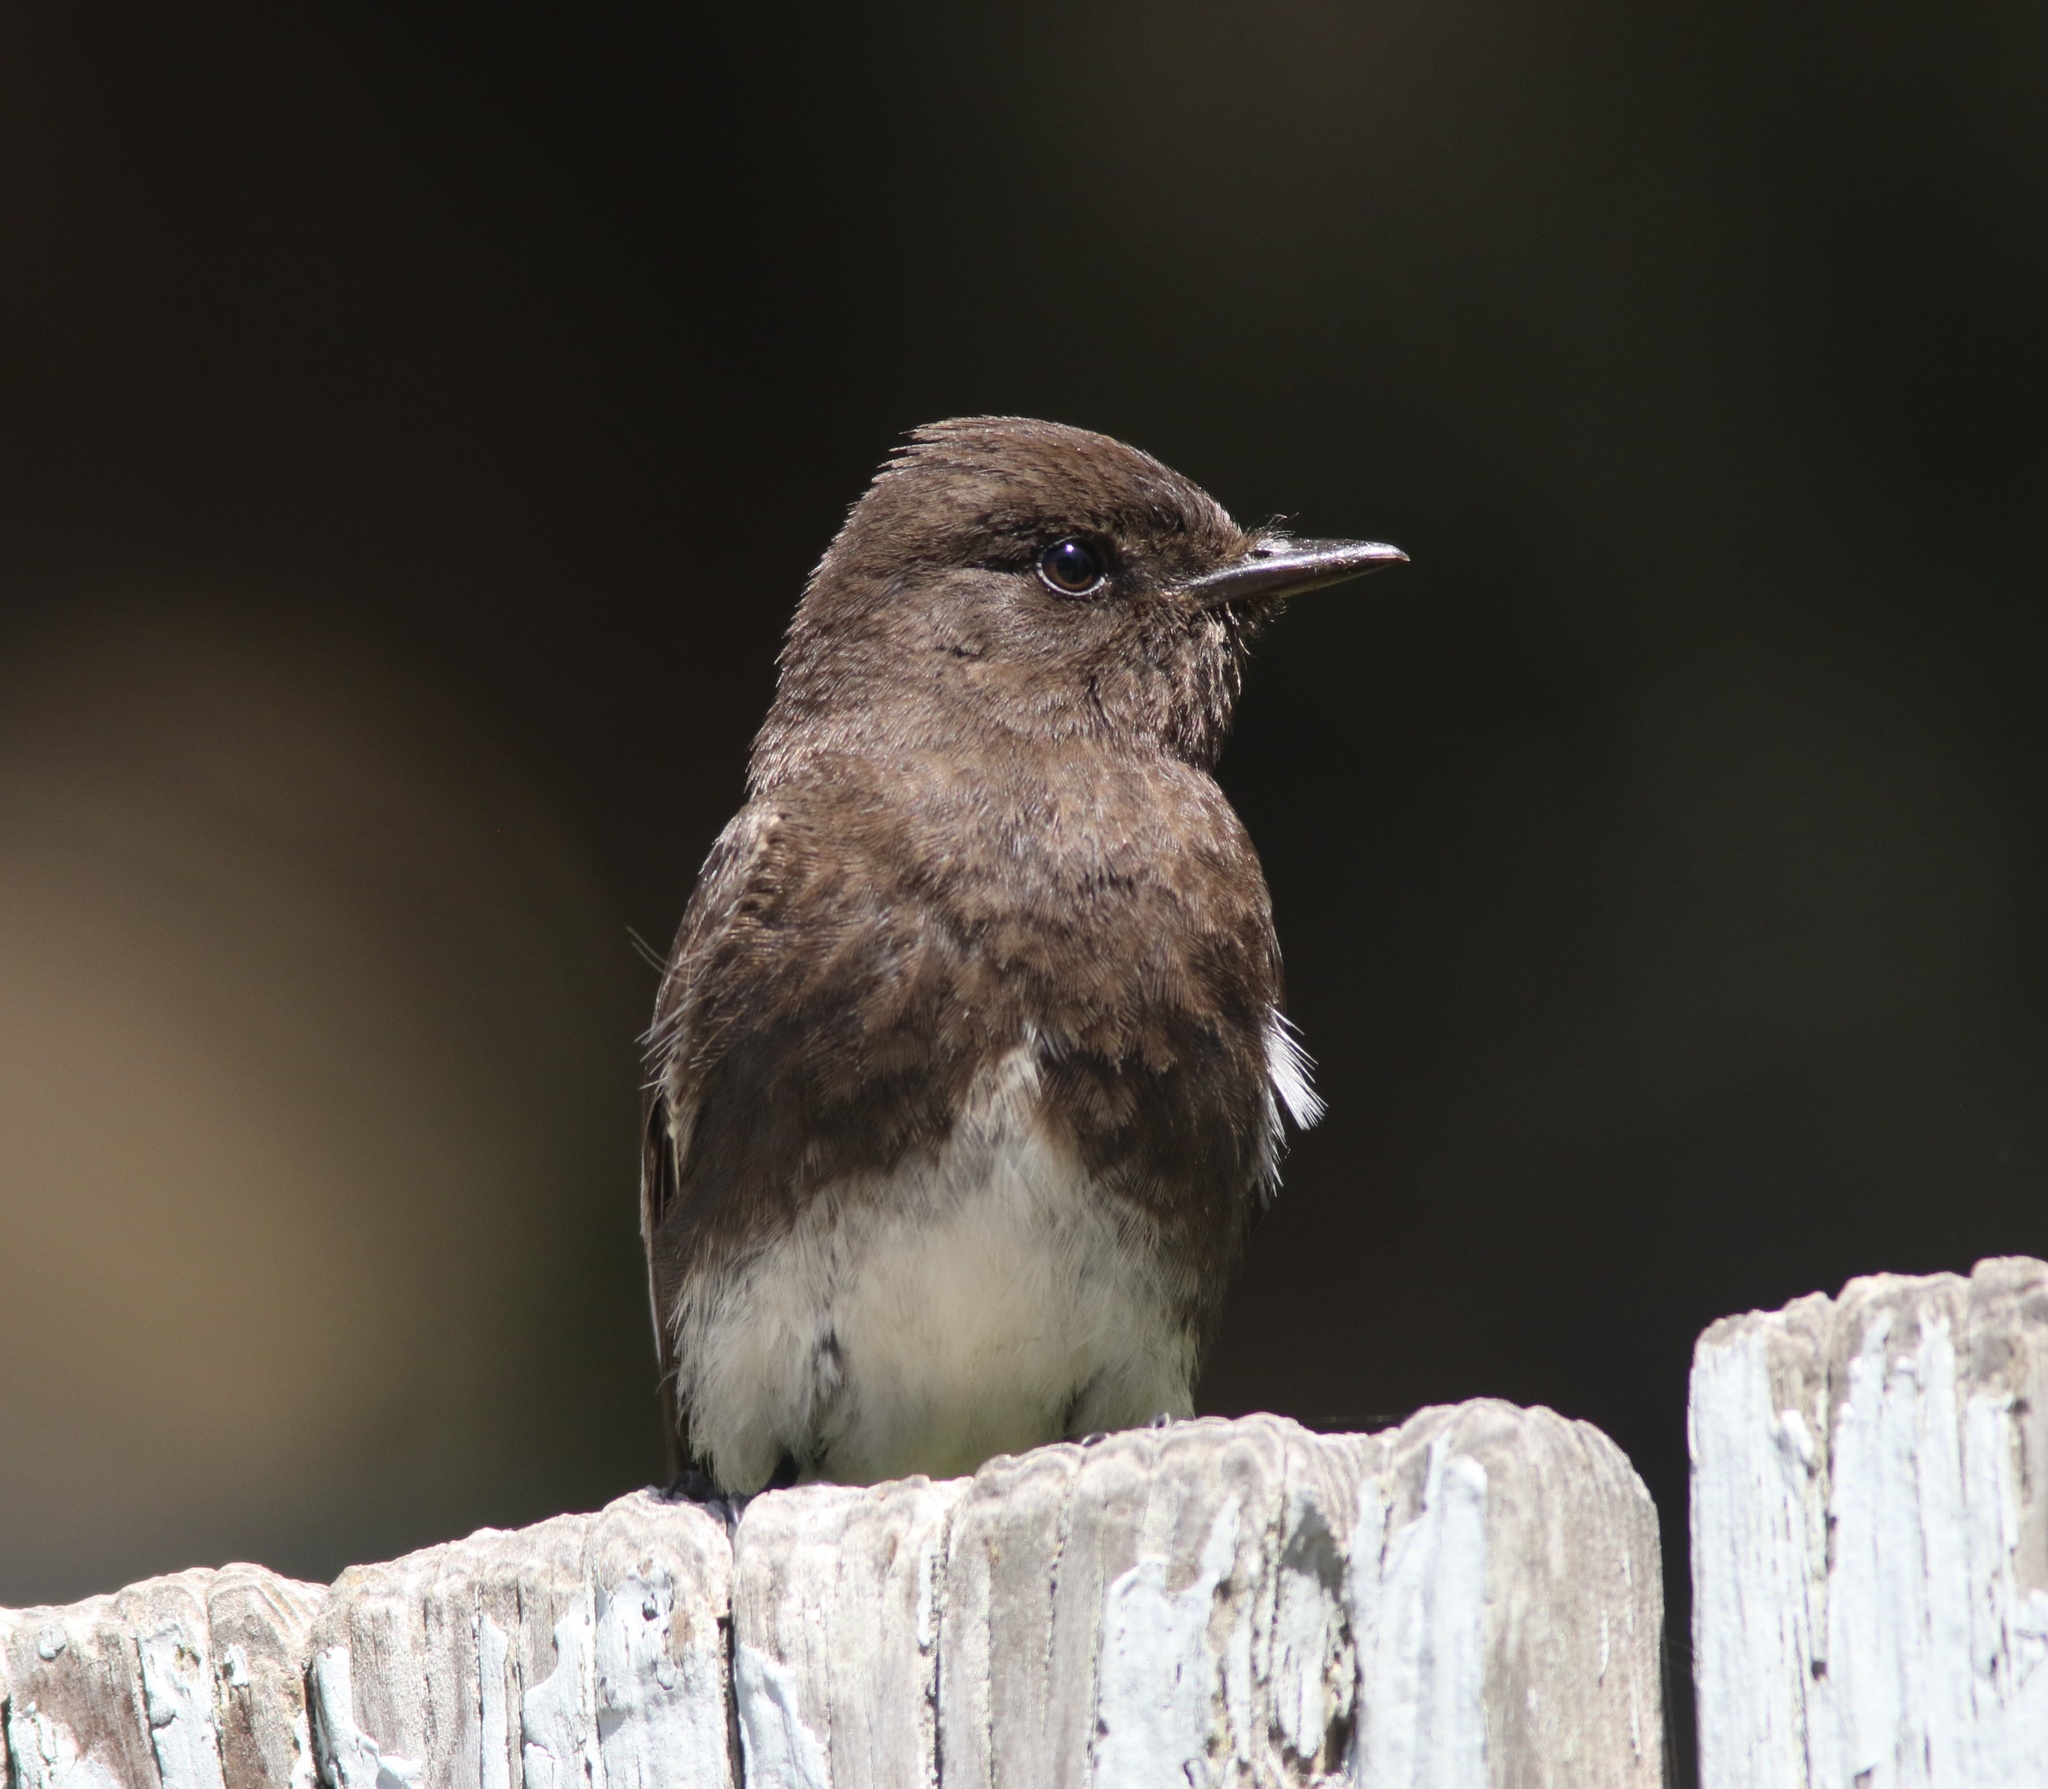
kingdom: Animalia
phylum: Chordata
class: Aves
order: Passeriformes
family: Tyrannidae
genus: Sayornis
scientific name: Sayornis nigricans
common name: Black phoebe
